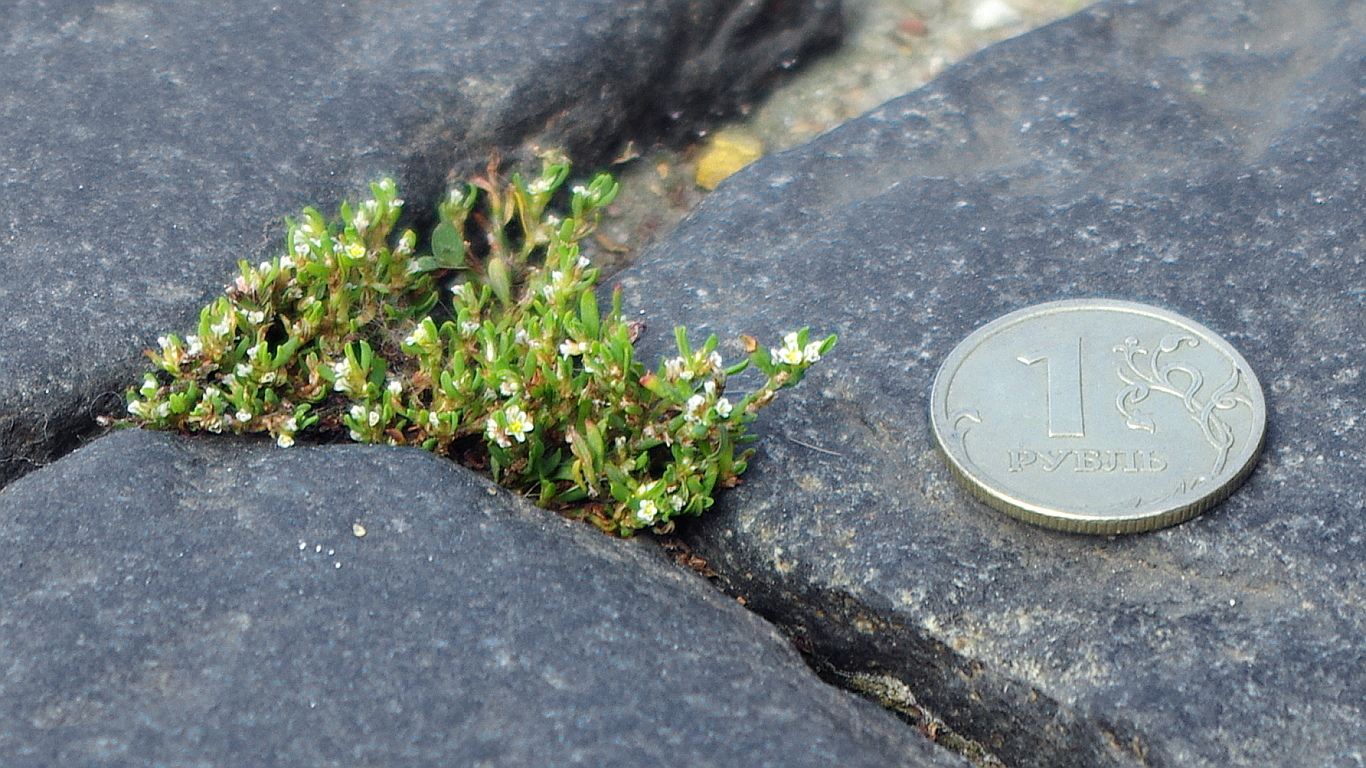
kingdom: Plantae
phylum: Tracheophyta
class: Magnoliopsida
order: Caryophyllales
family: Polygonaceae
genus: Polygonum
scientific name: Polygonum
